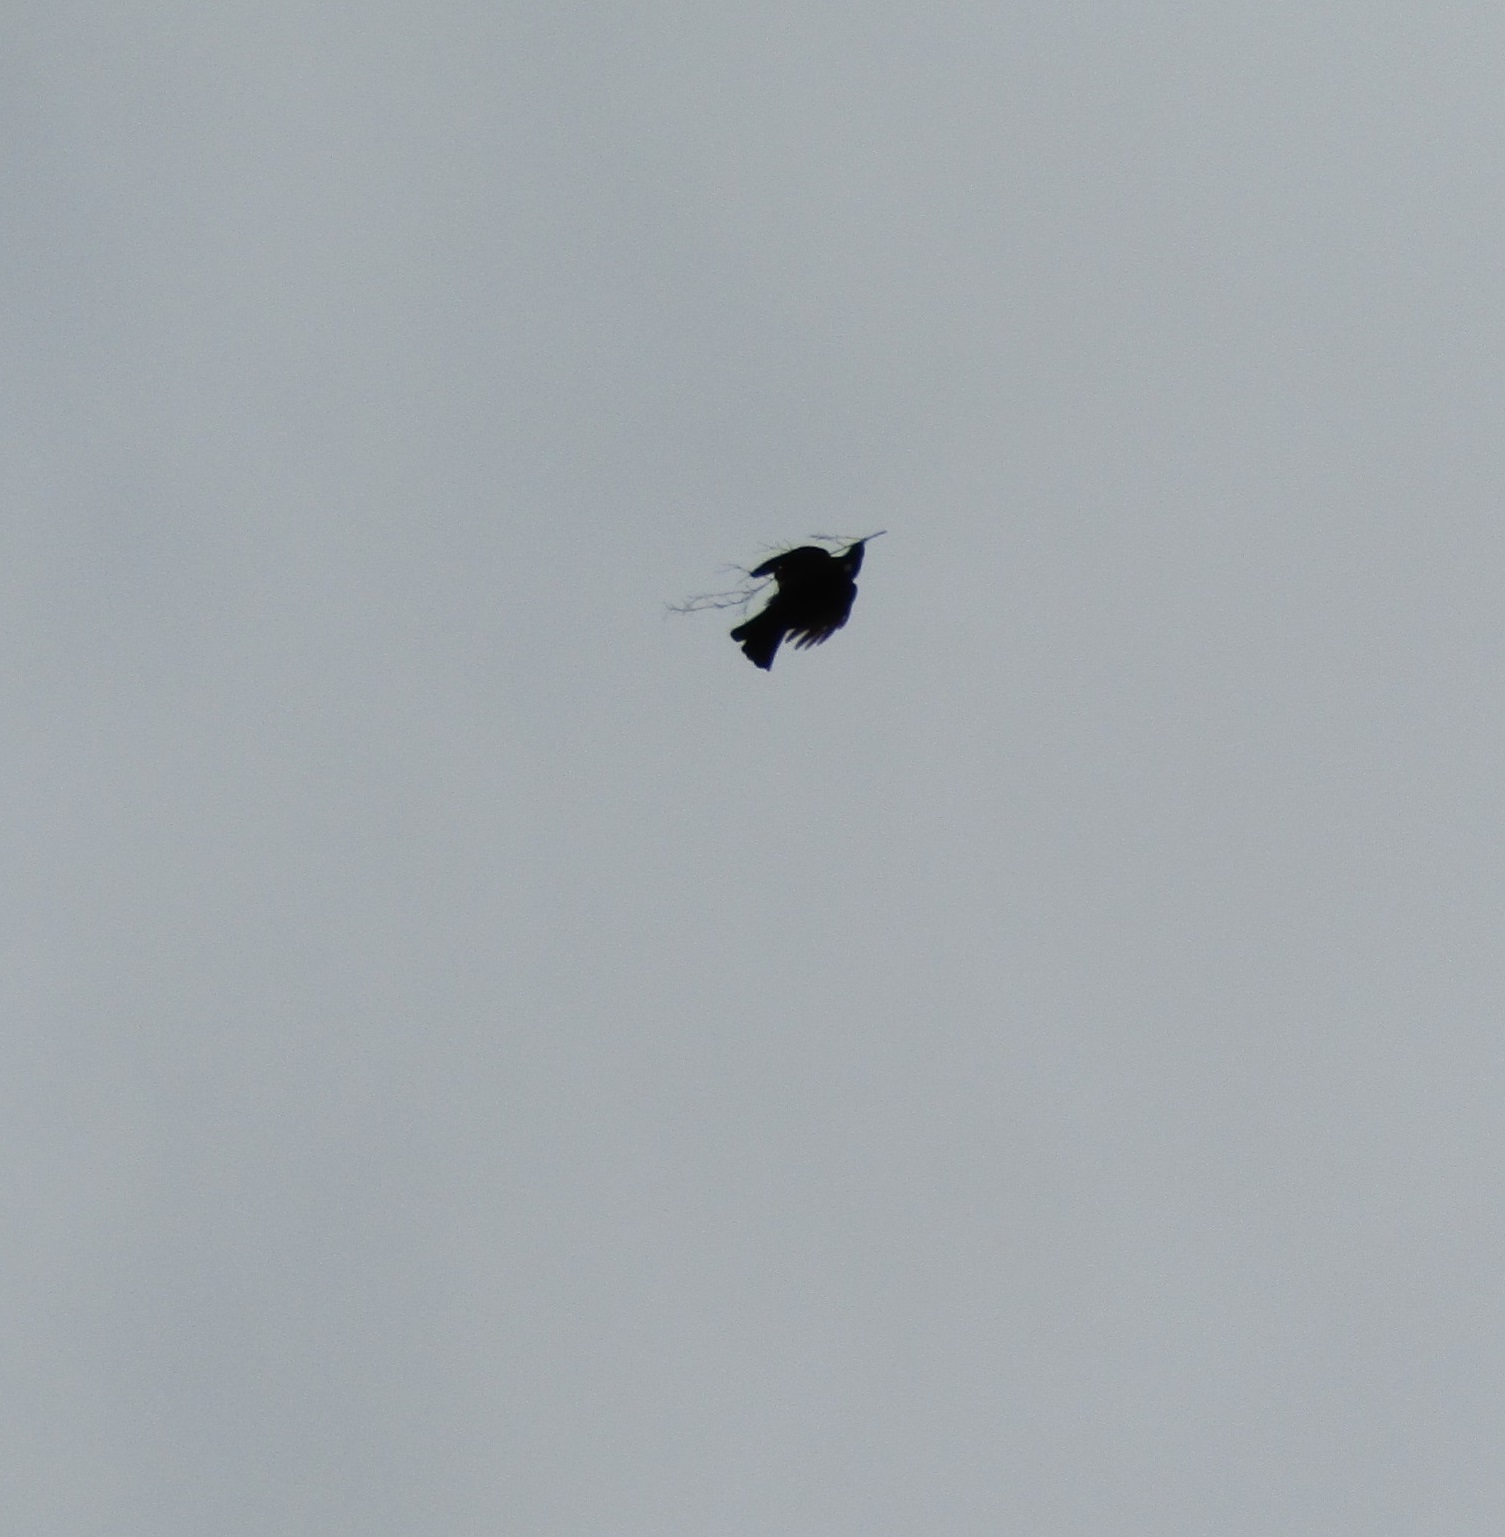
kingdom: Animalia
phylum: Chordata
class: Aves
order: Passeriformes
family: Meliphagidae
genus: Prosthemadera
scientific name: Prosthemadera novaeseelandiae
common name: Tui
